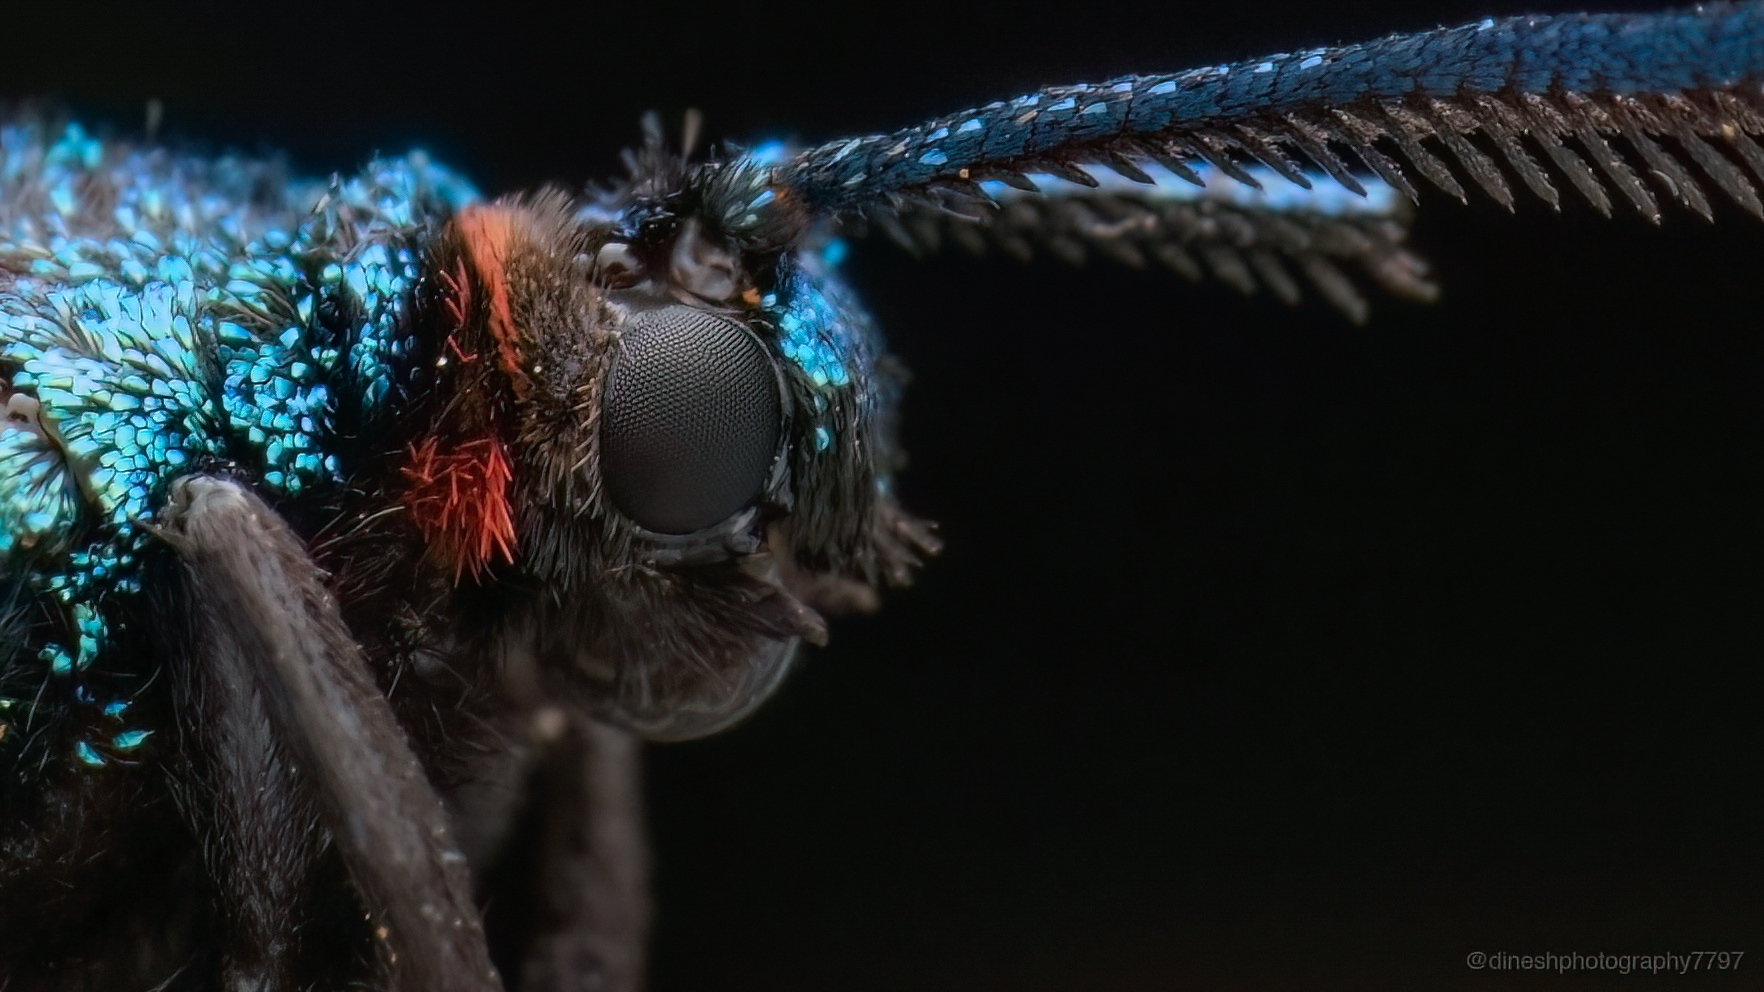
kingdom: Animalia
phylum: Arthropoda
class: Insecta
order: Lepidoptera
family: Zygaenidae
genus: Callizygaena
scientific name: Callizygaena auratus
